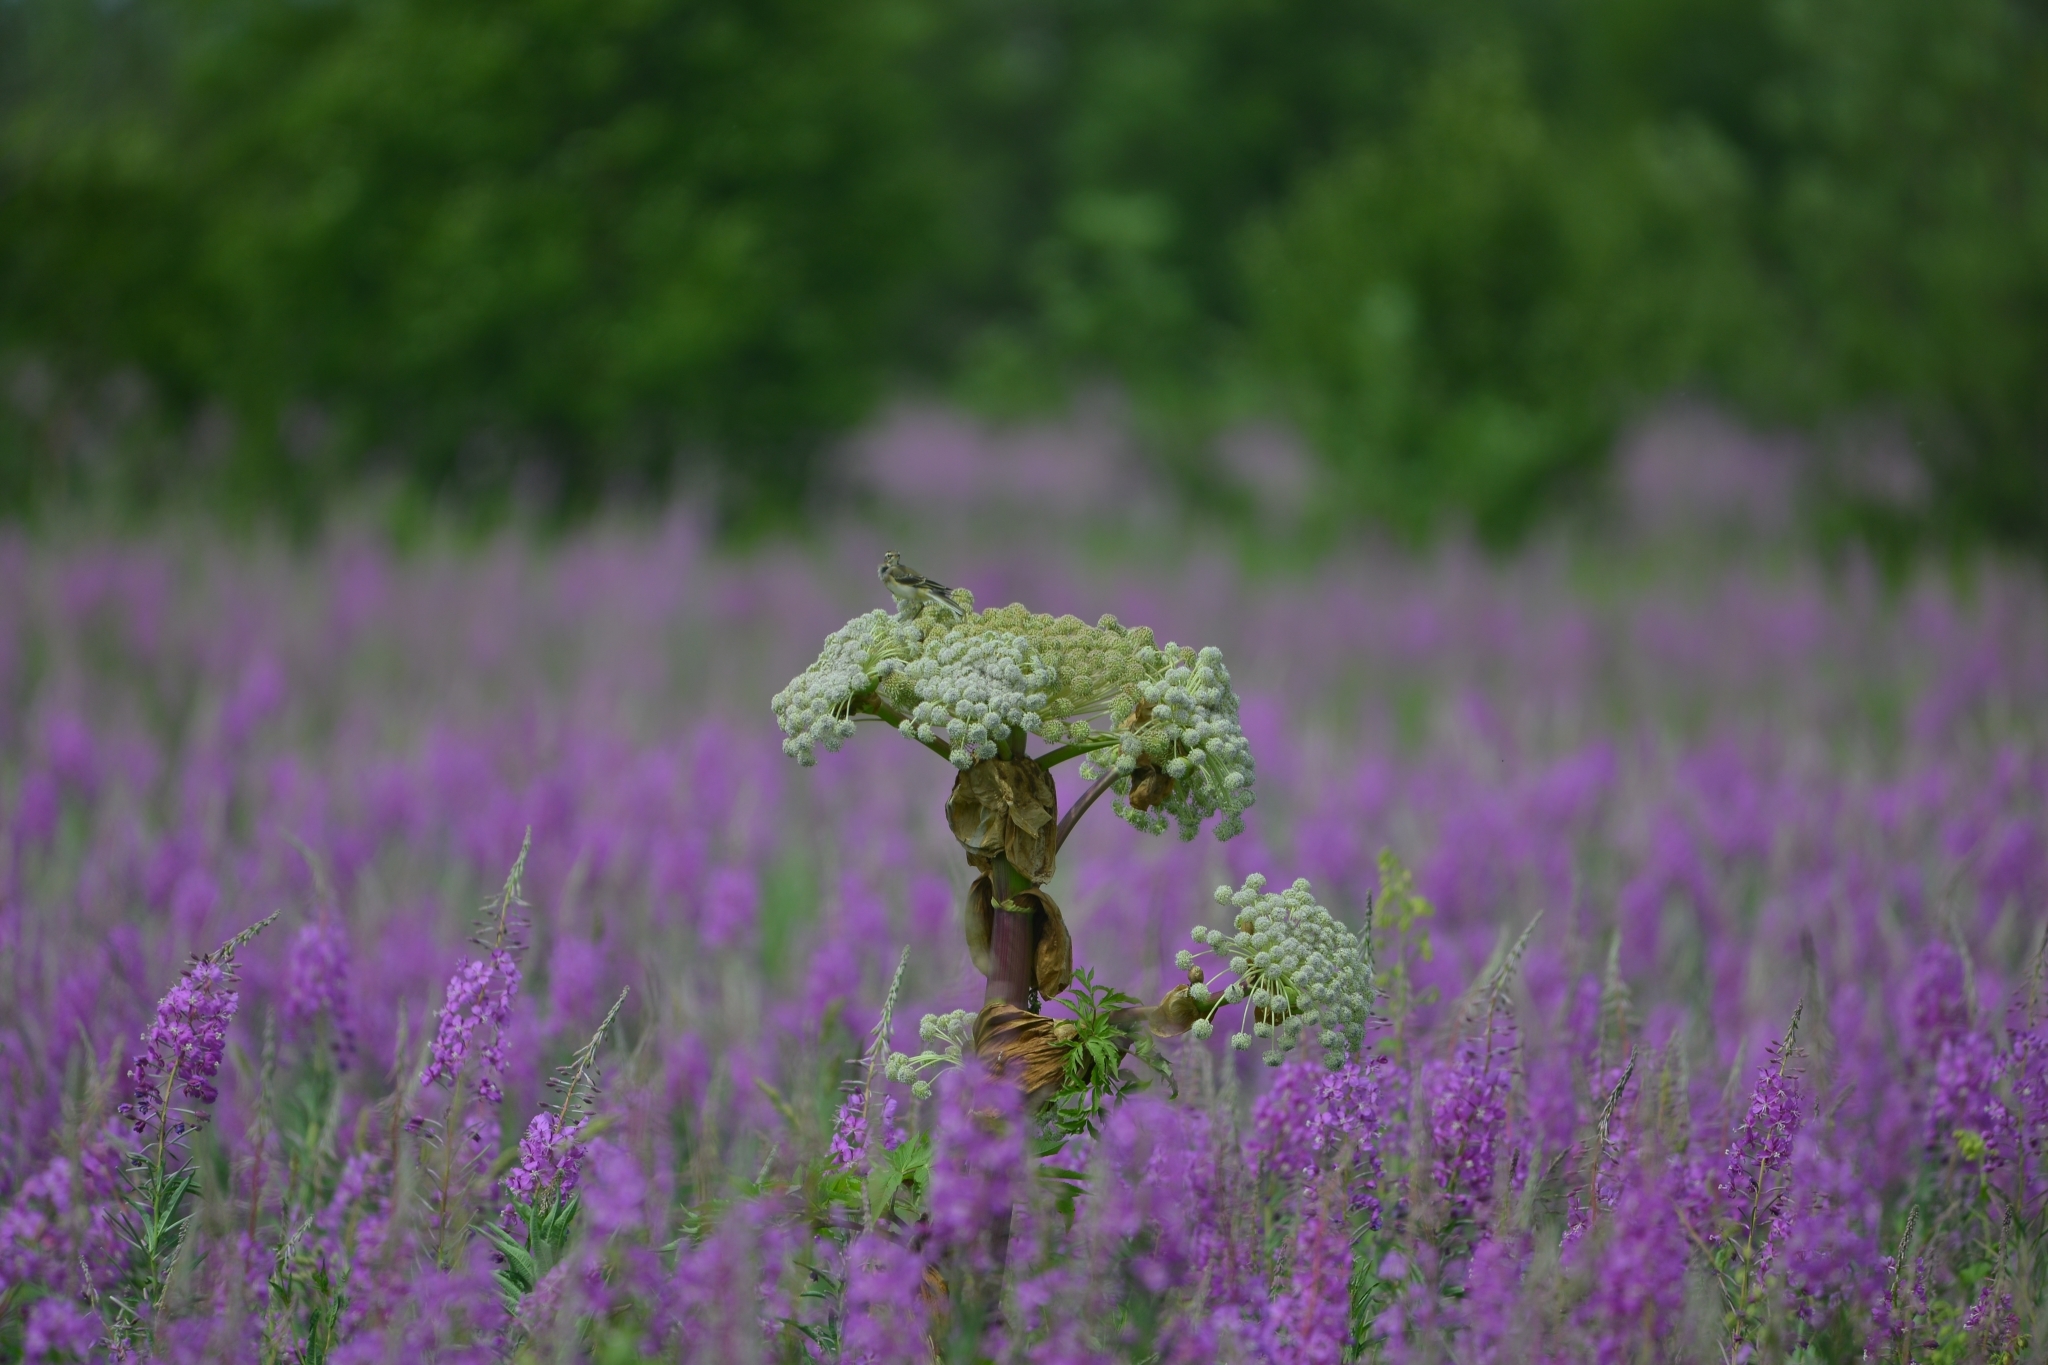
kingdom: Animalia
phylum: Chordata
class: Aves
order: Passeriformes
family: Motacillidae
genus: Motacilla
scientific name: Motacilla tschutschensis
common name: Eastern yellow wagtail
